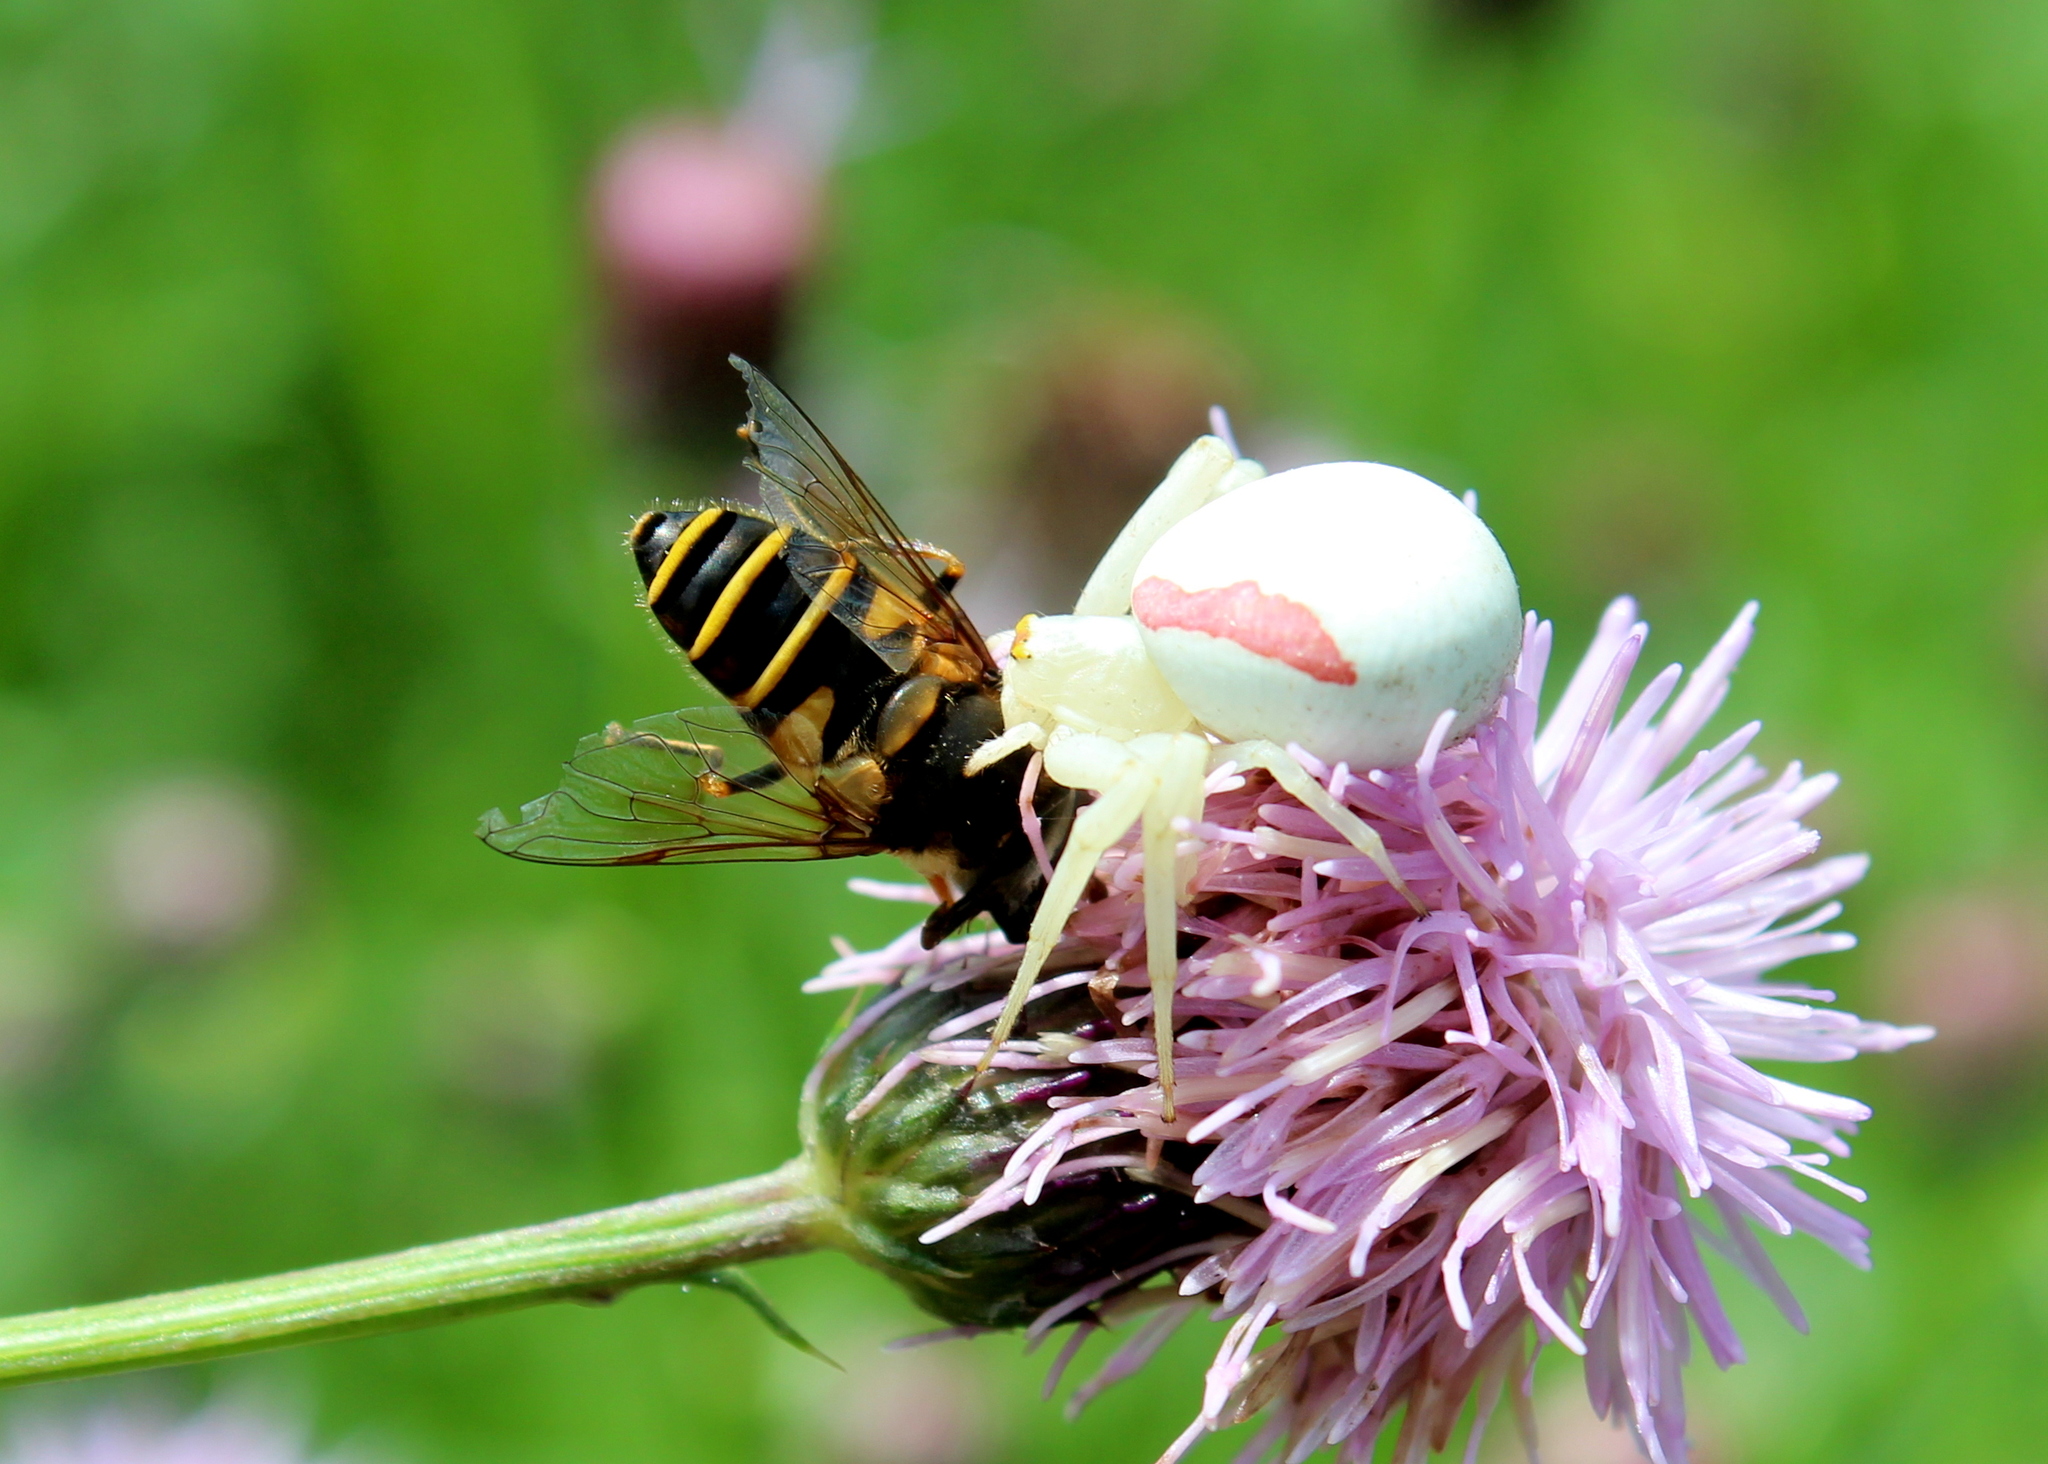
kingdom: Animalia
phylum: Arthropoda
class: Arachnida
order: Araneae
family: Thomisidae
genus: Misumena
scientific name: Misumena vatia
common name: Goldenrod crab spider
